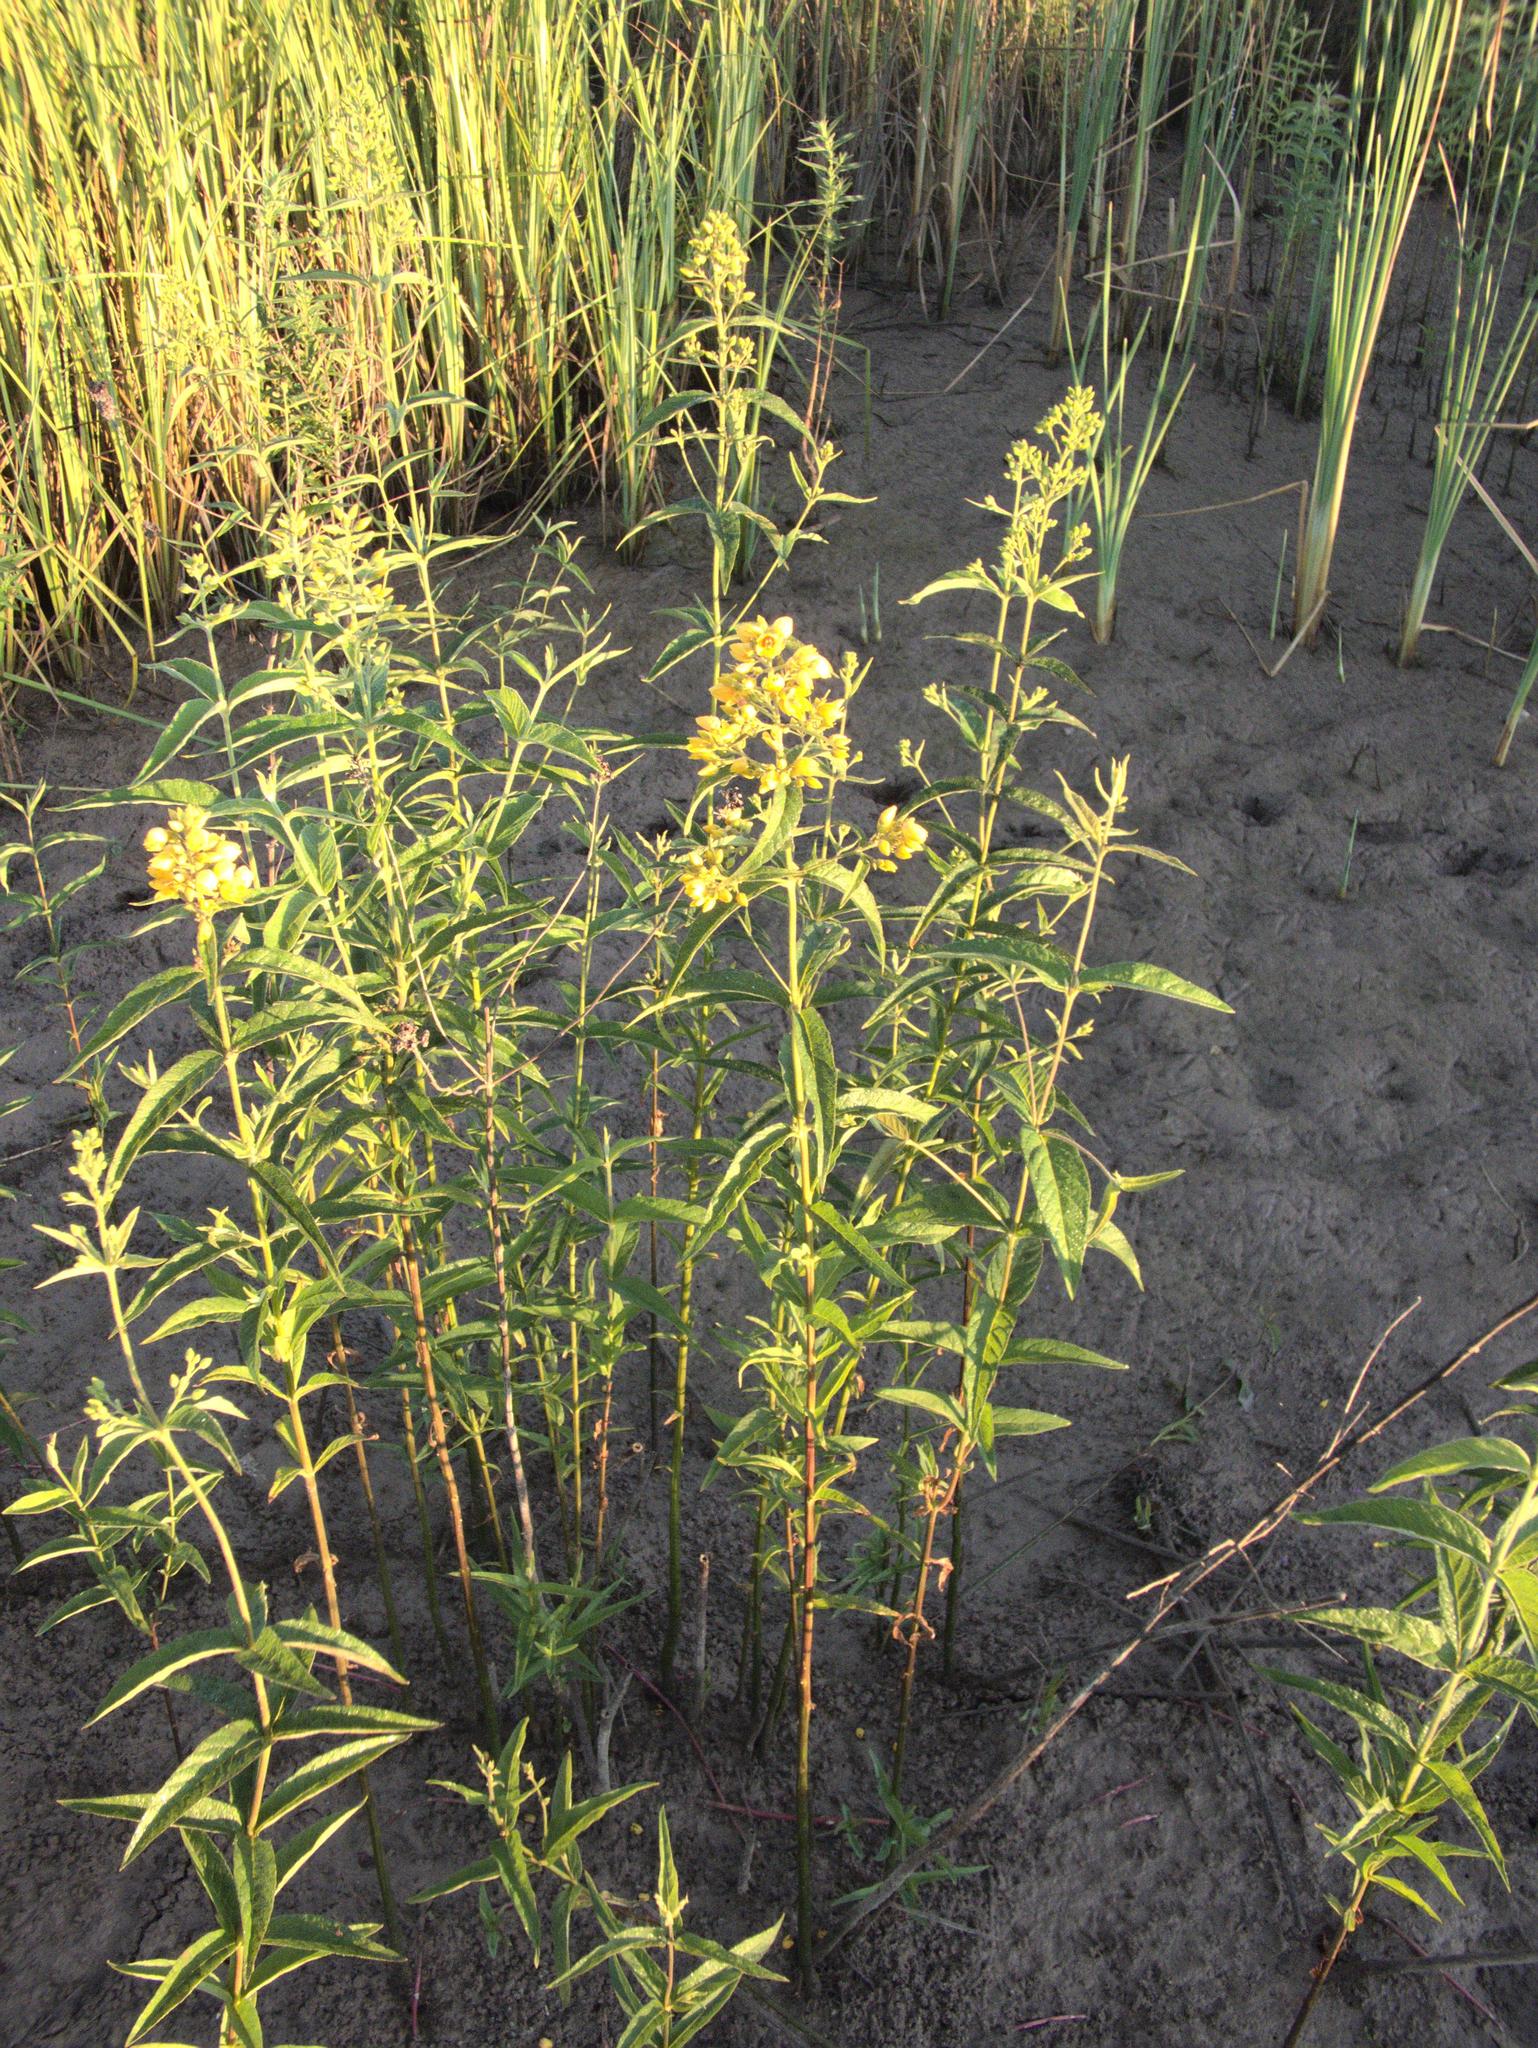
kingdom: Plantae
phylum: Tracheophyta
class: Magnoliopsida
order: Ericales
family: Primulaceae
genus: Lysimachia
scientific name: Lysimachia vulgaris
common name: Yellow loosestrife
